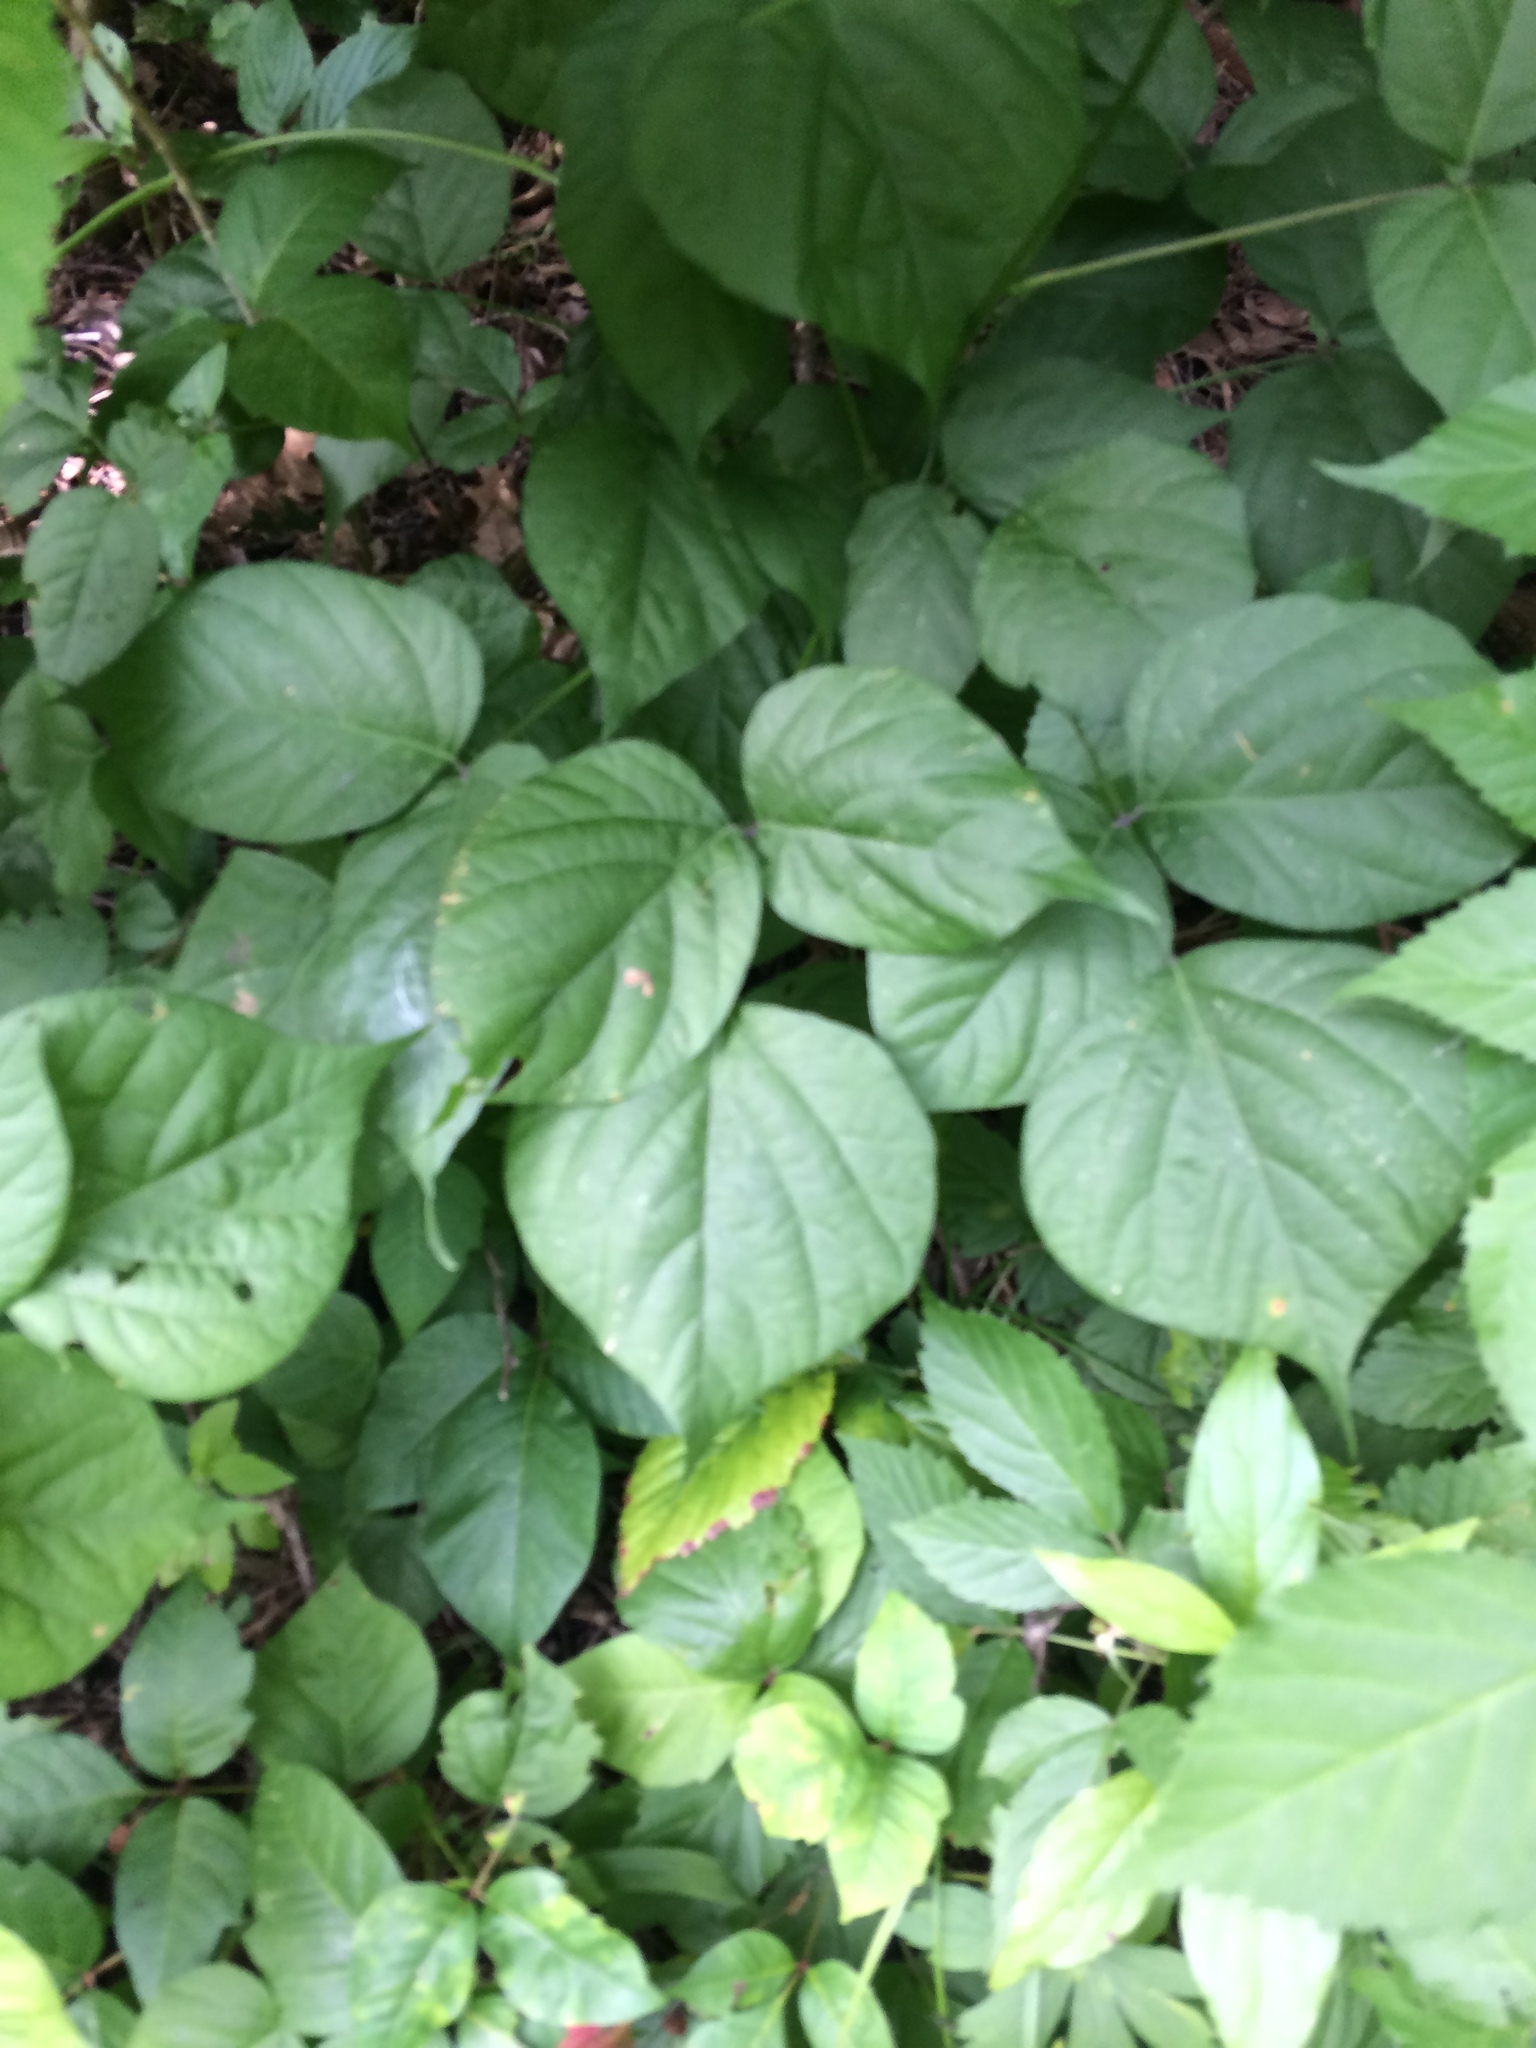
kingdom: Plantae
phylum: Tracheophyta
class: Magnoliopsida
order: Fabales
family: Fabaceae
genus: Hylodesmum
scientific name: Hylodesmum glutinosum
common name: Clustered-leaved tick-trefoil
